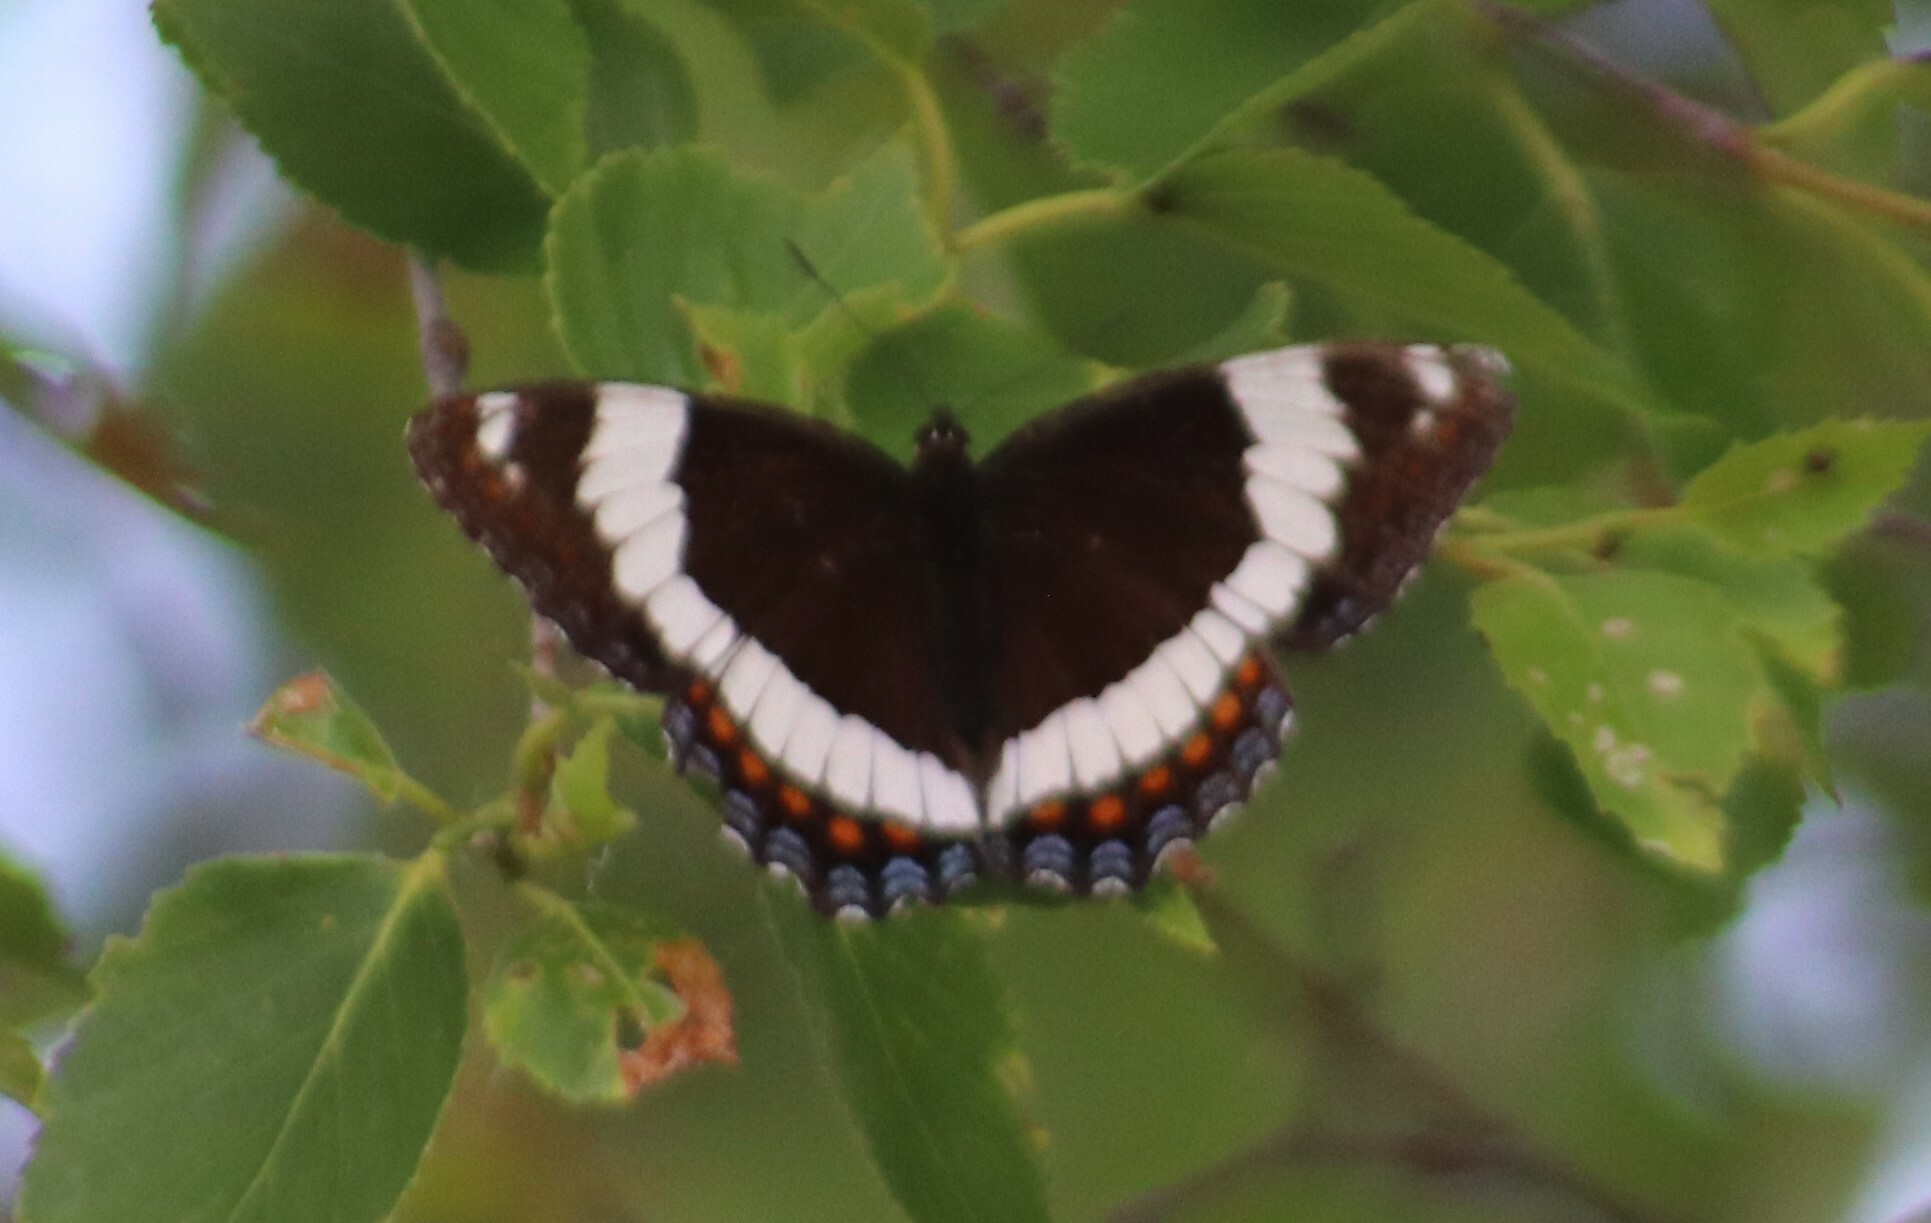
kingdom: Animalia
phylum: Arthropoda
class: Insecta
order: Lepidoptera
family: Nymphalidae
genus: Limenitis
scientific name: Limenitis arthemis
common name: Red-spotted admiral
